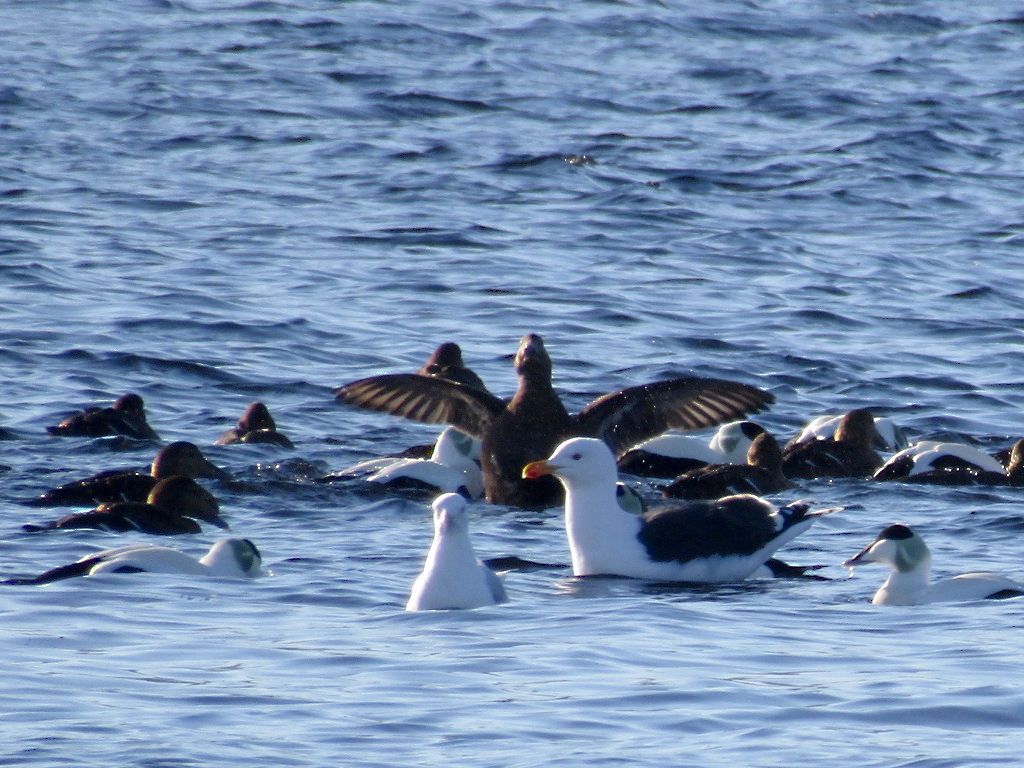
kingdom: Animalia
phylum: Chordata
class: Aves
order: Charadriiformes
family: Laridae
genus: Larus
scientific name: Larus marinus
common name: Great black-backed gull
